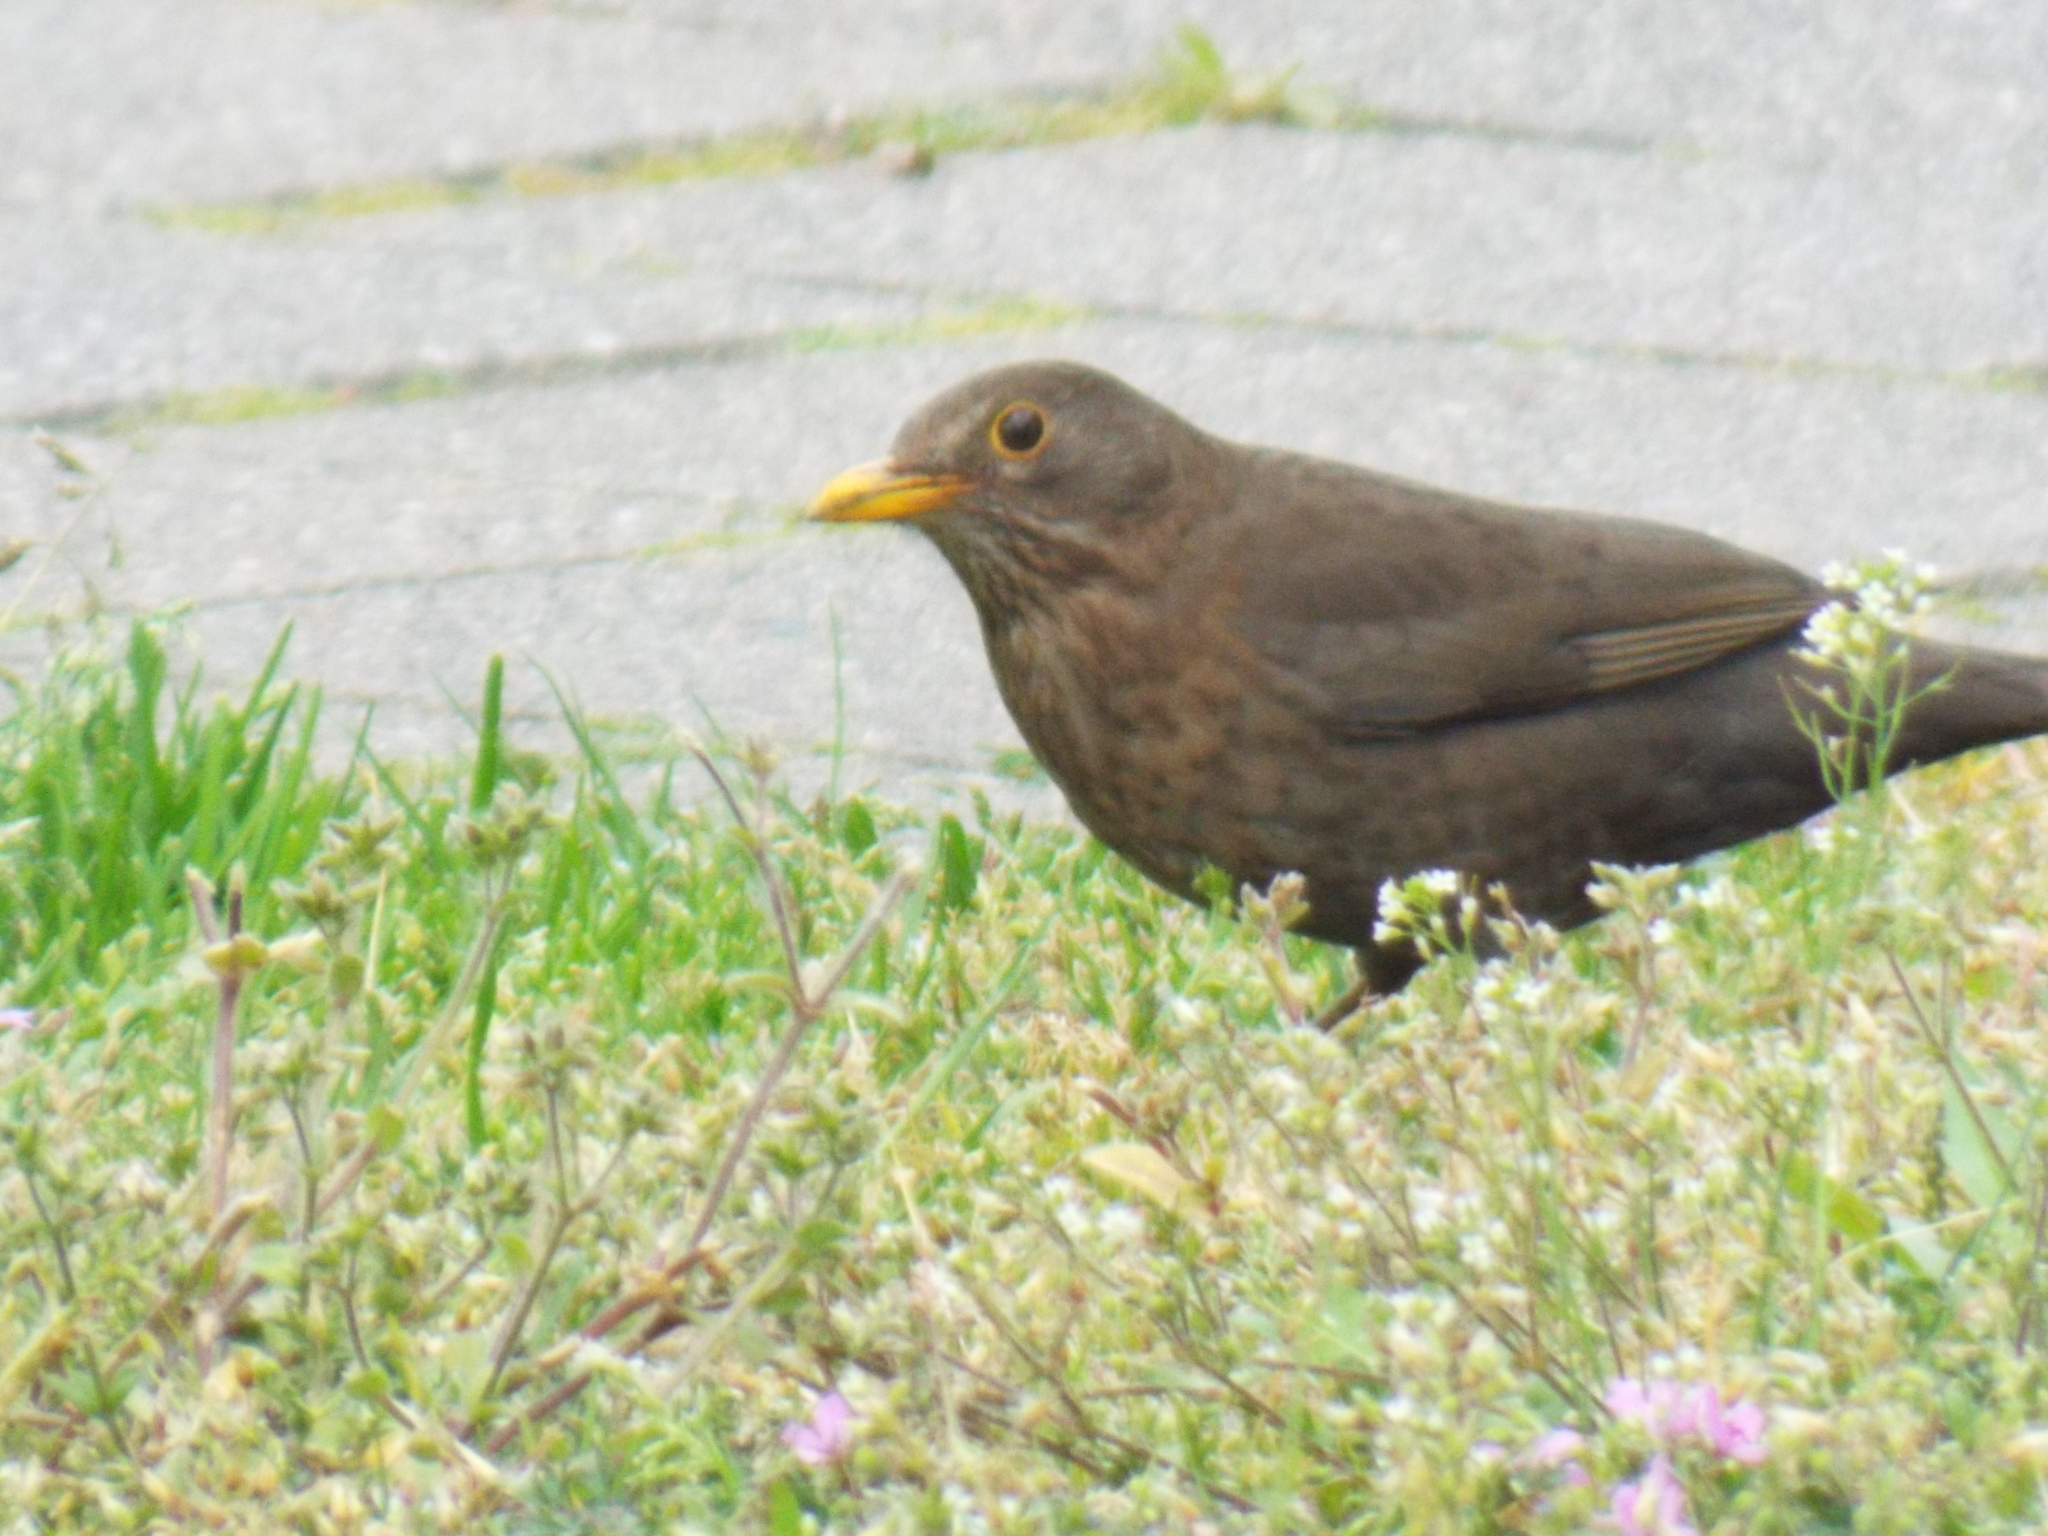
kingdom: Animalia
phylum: Chordata
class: Aves
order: Passeriformes
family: Turdidae
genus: Turdus
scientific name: Turdus merula
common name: Common blackbird
